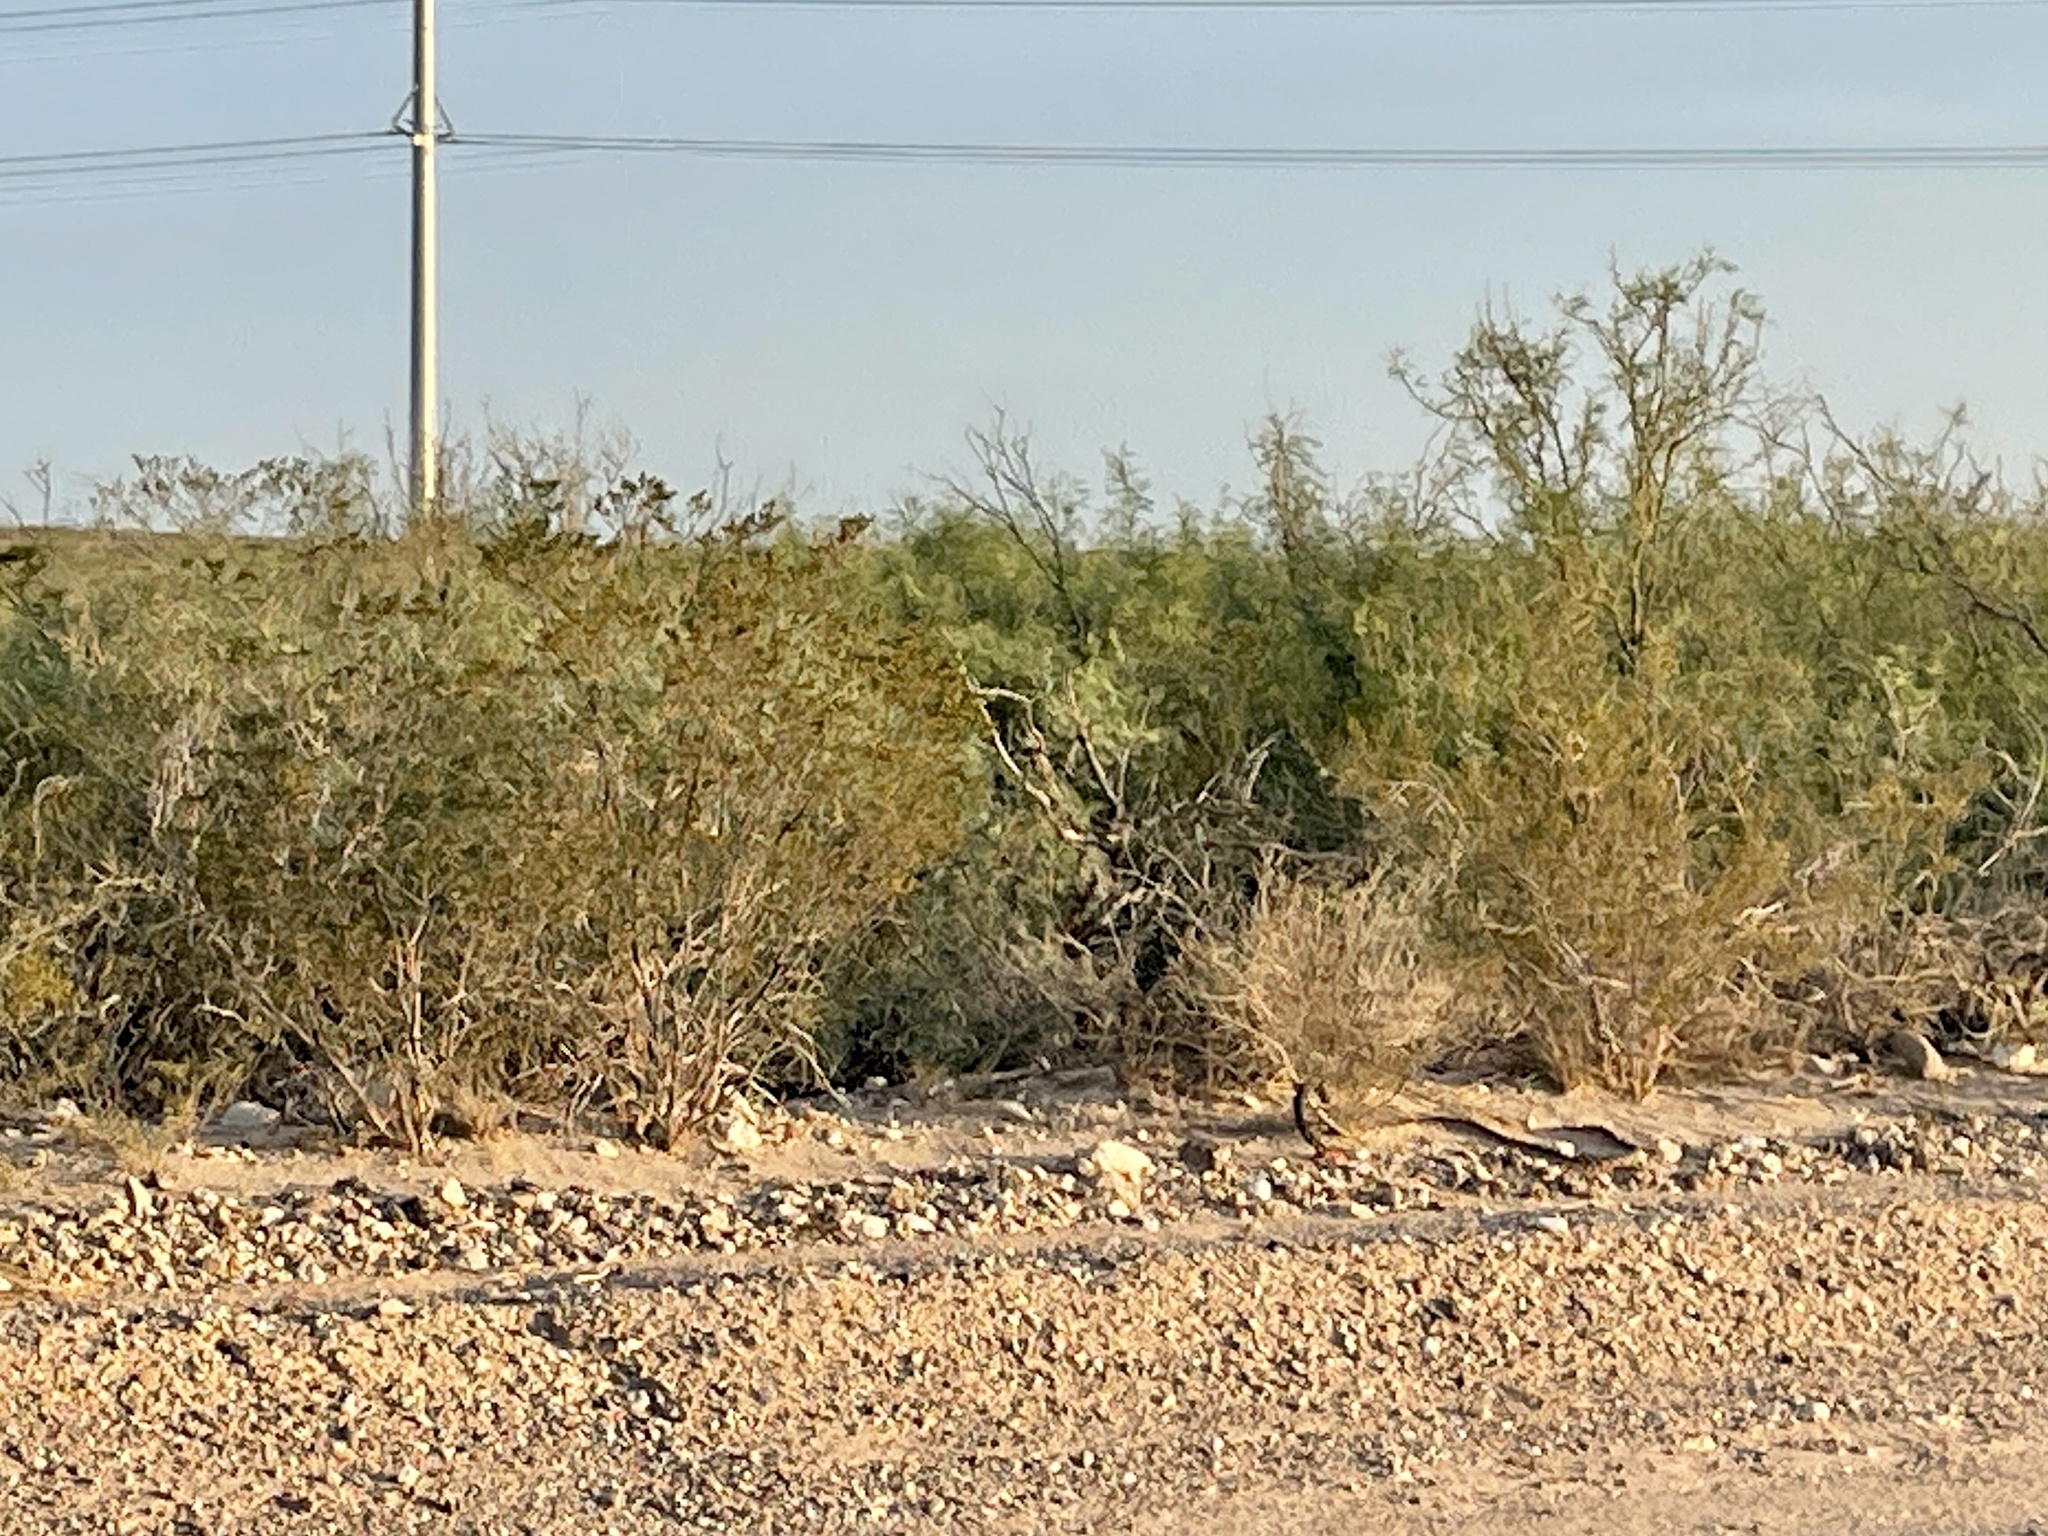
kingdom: Plantae
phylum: Tracheophyta
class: Magnoliopsida
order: Zygophyllales
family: Zygophyllaceae
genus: Larrea
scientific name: Larrea tridentata
